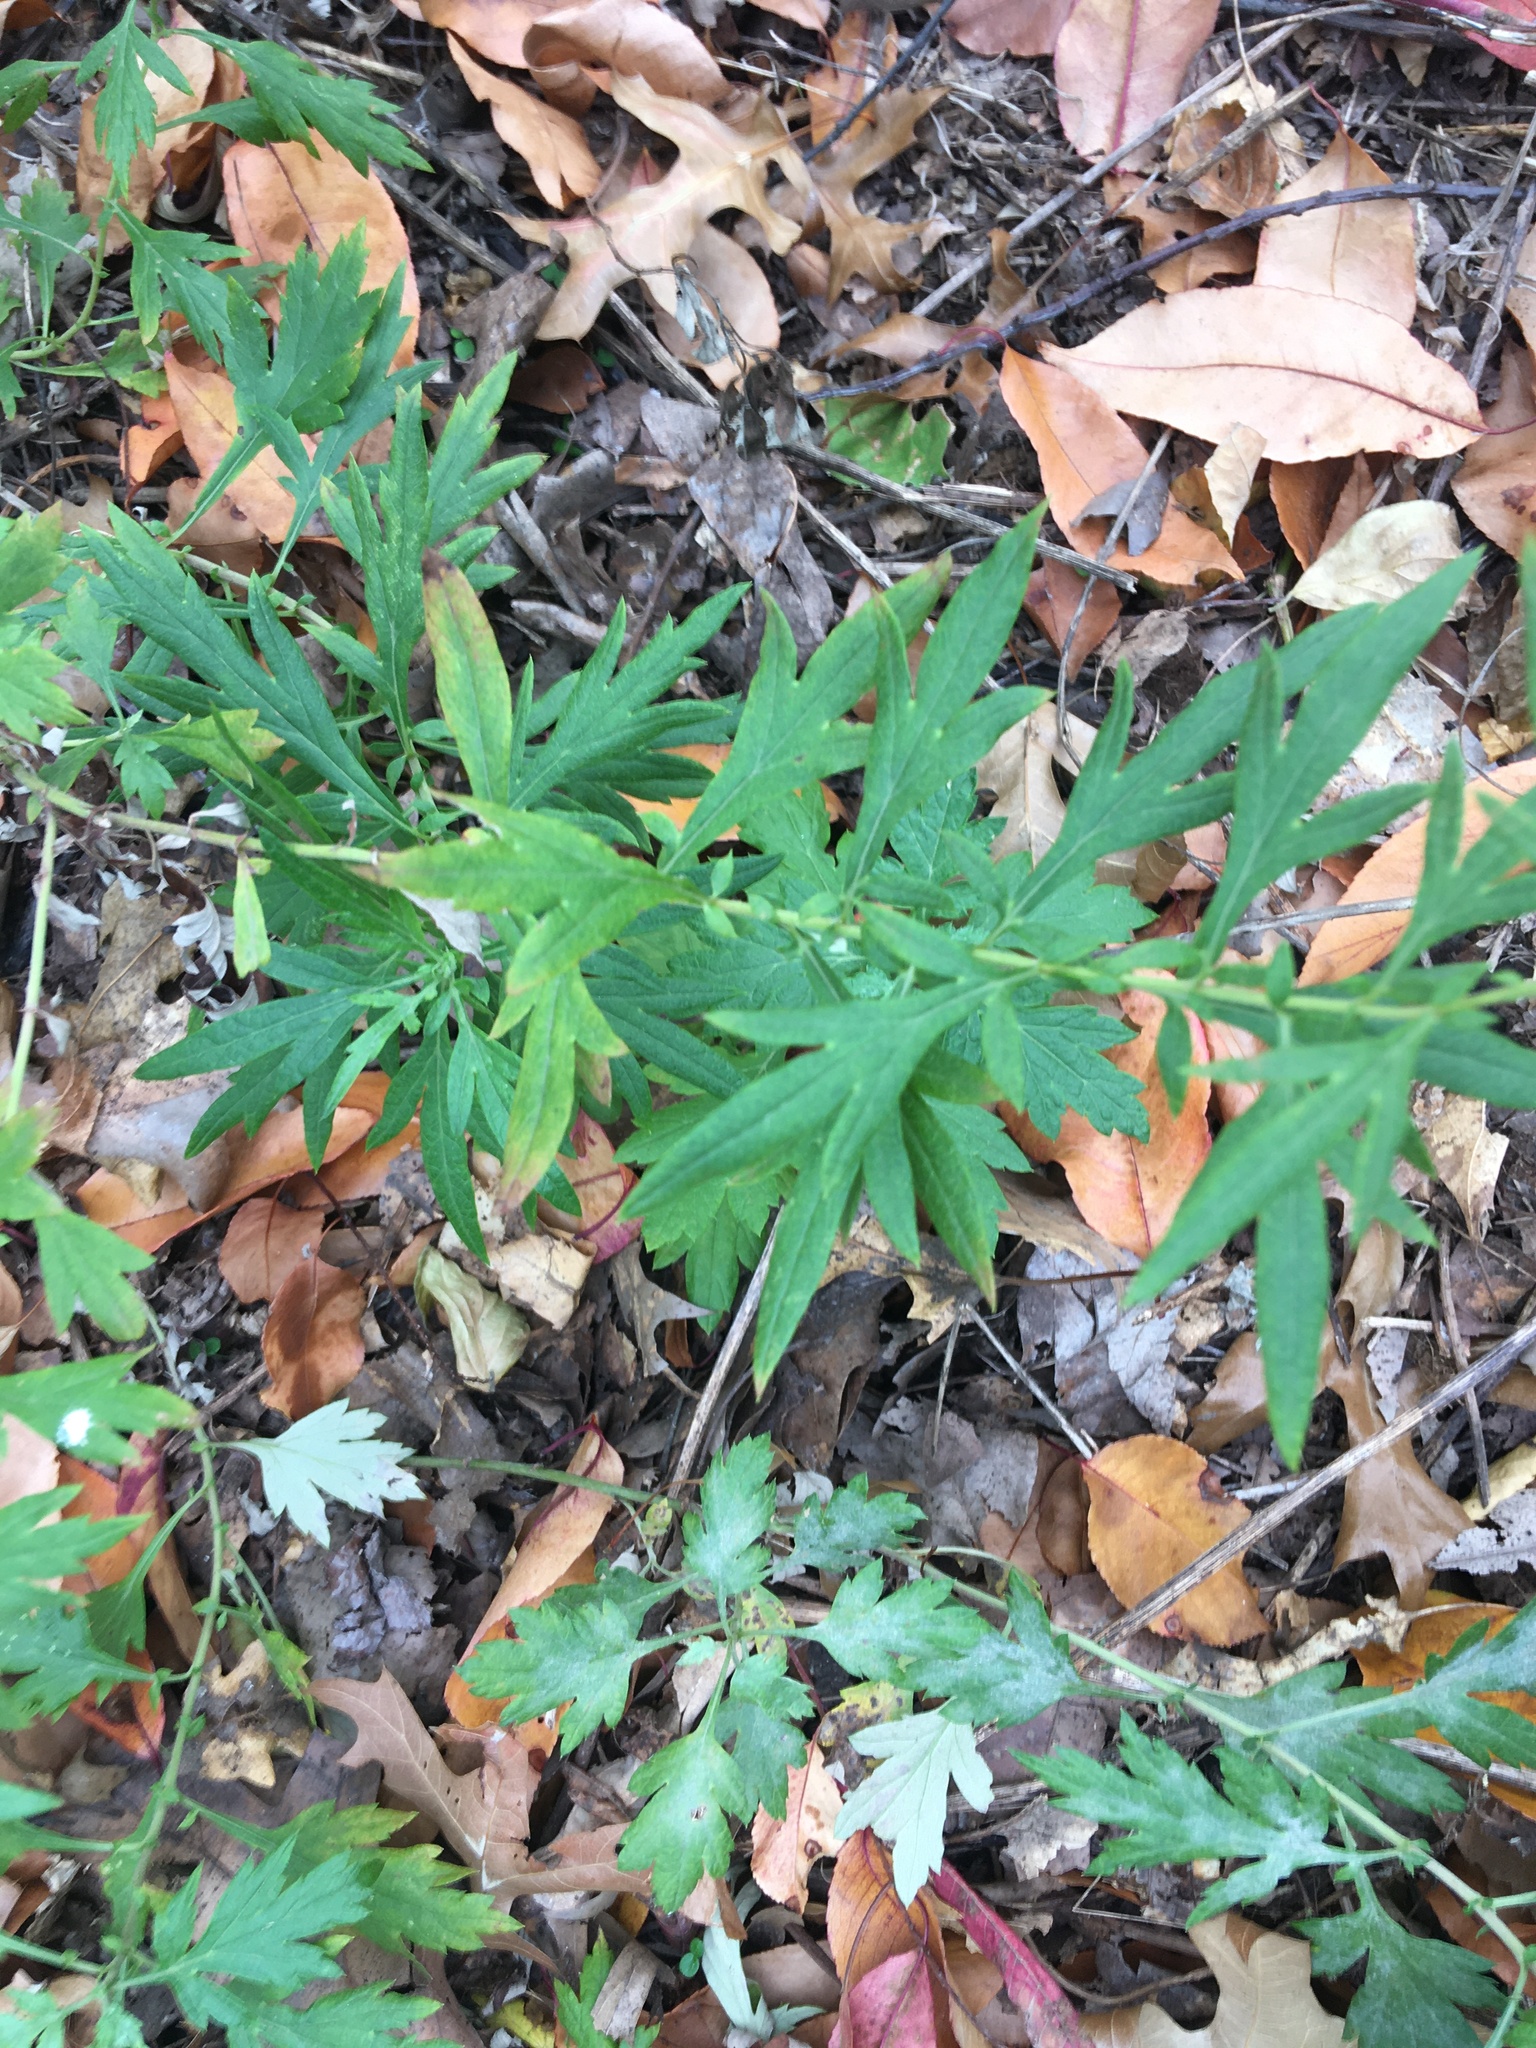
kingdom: Plantae
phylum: Tracheophyta
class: Magnoliopsida
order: Asterales
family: Asteraceae
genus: Artemisia
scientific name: Artemisia vulgaris
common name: Mugwort
